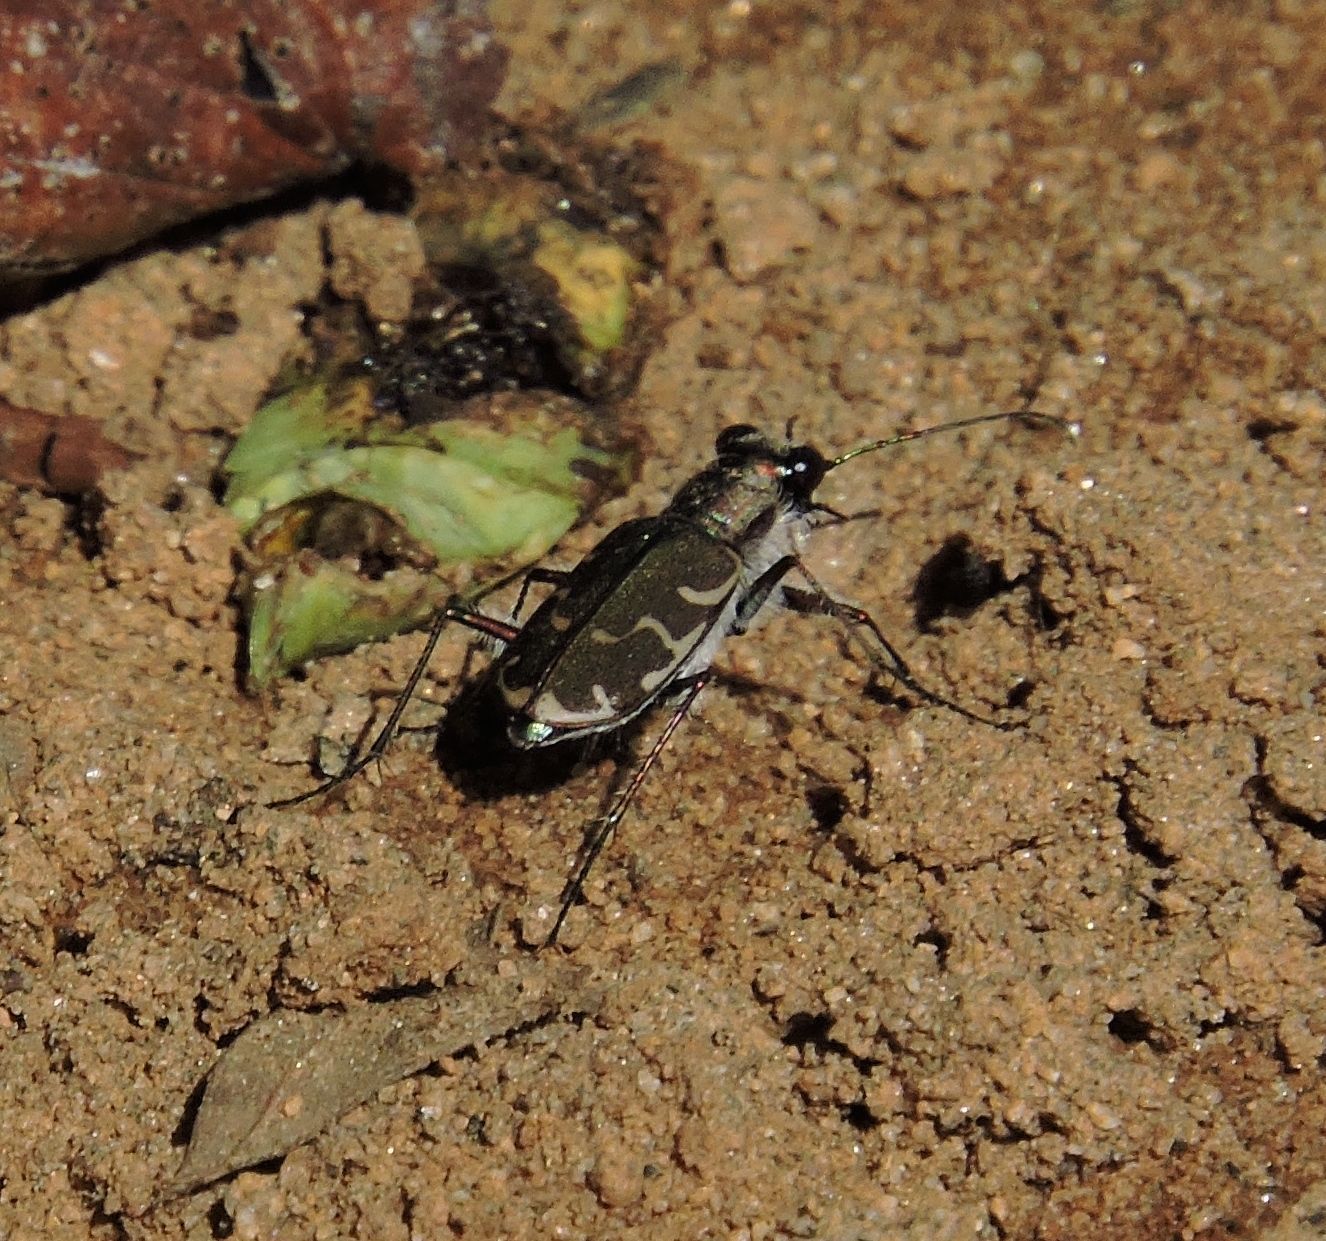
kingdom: Animalia
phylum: Arthropoda
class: Insecta
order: Coleoptera
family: Carabidae
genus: Cicindela
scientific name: Cicindela repanda
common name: Bronzed tiger beetle
